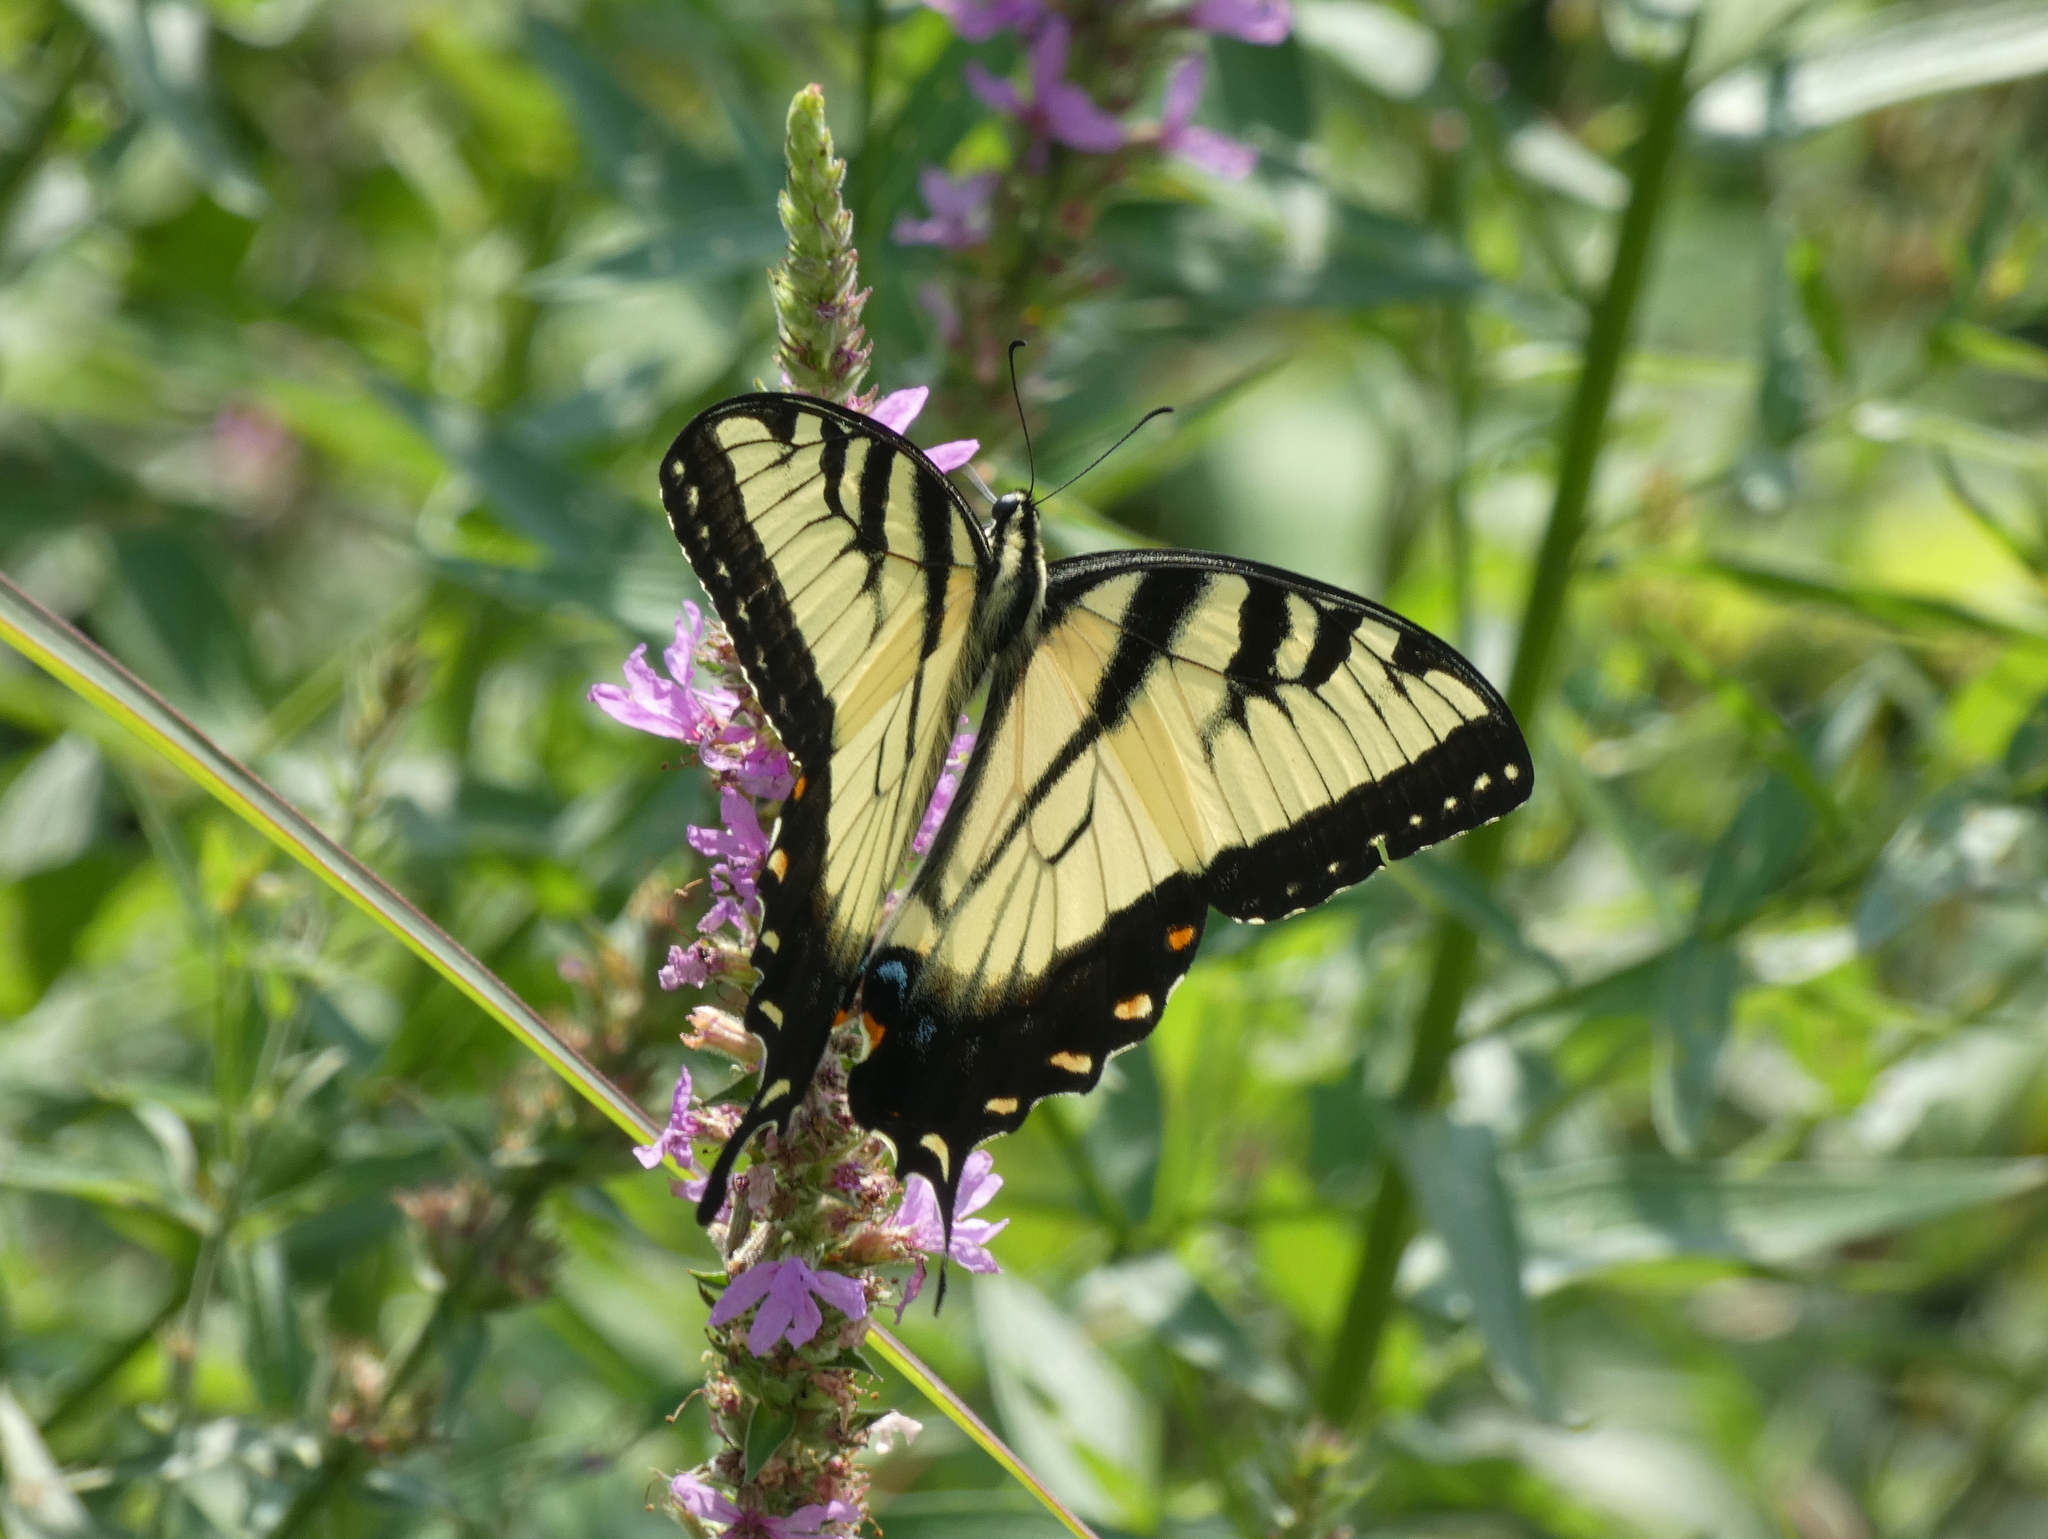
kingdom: Animalia
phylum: Arthropoda
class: Insecta
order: Lepidoptera
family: Papilionidae
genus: Papilio
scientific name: Papilio glaucus
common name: Tiger swallowtail
